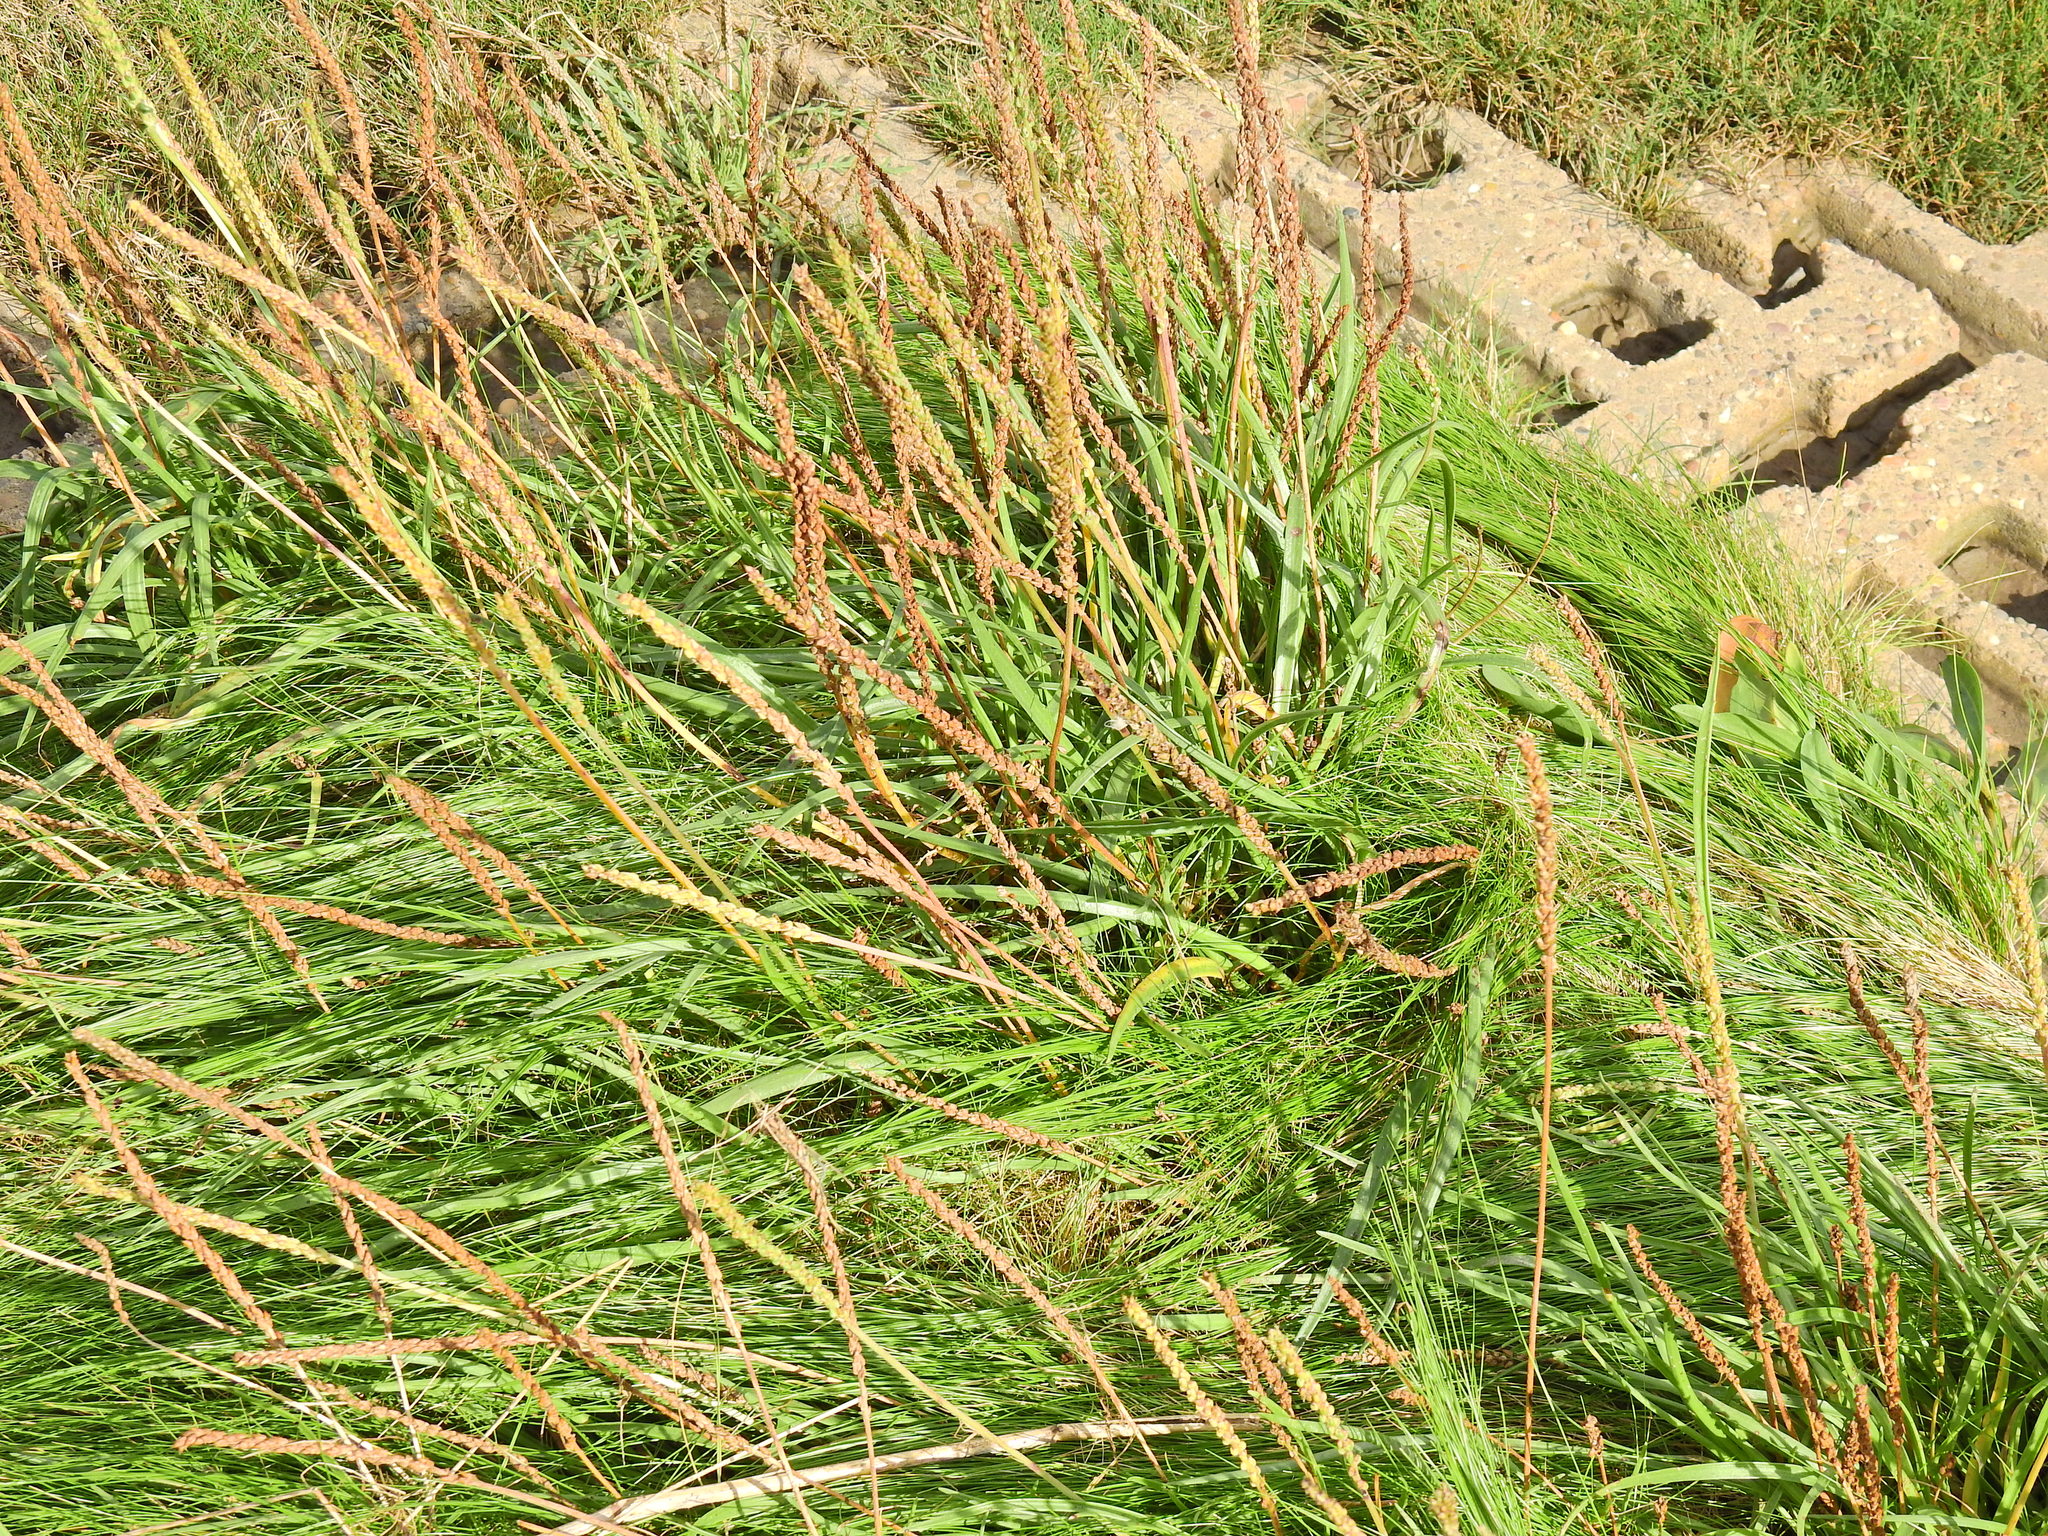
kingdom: Plantae
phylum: Tracheophyta
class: Liliopsida
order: Alismatales
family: Juncaginaceae
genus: Triglochin
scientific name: Triglochin maritima
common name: Sea arrowgrass
